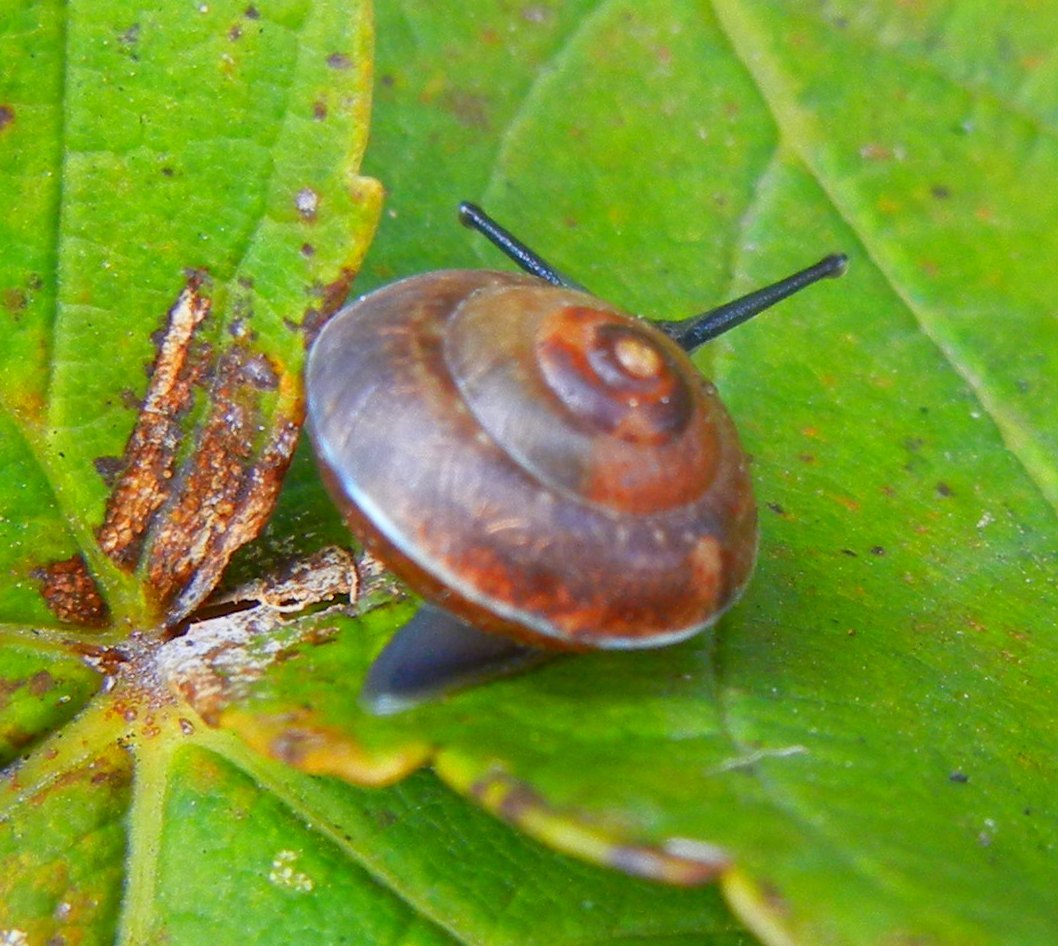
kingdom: Animalia
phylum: Mollusca
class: Gastropoda
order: Stylommatophora
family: Hygromiidae
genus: Hygromia
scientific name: Hygromia cinctella
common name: Girdled snail
